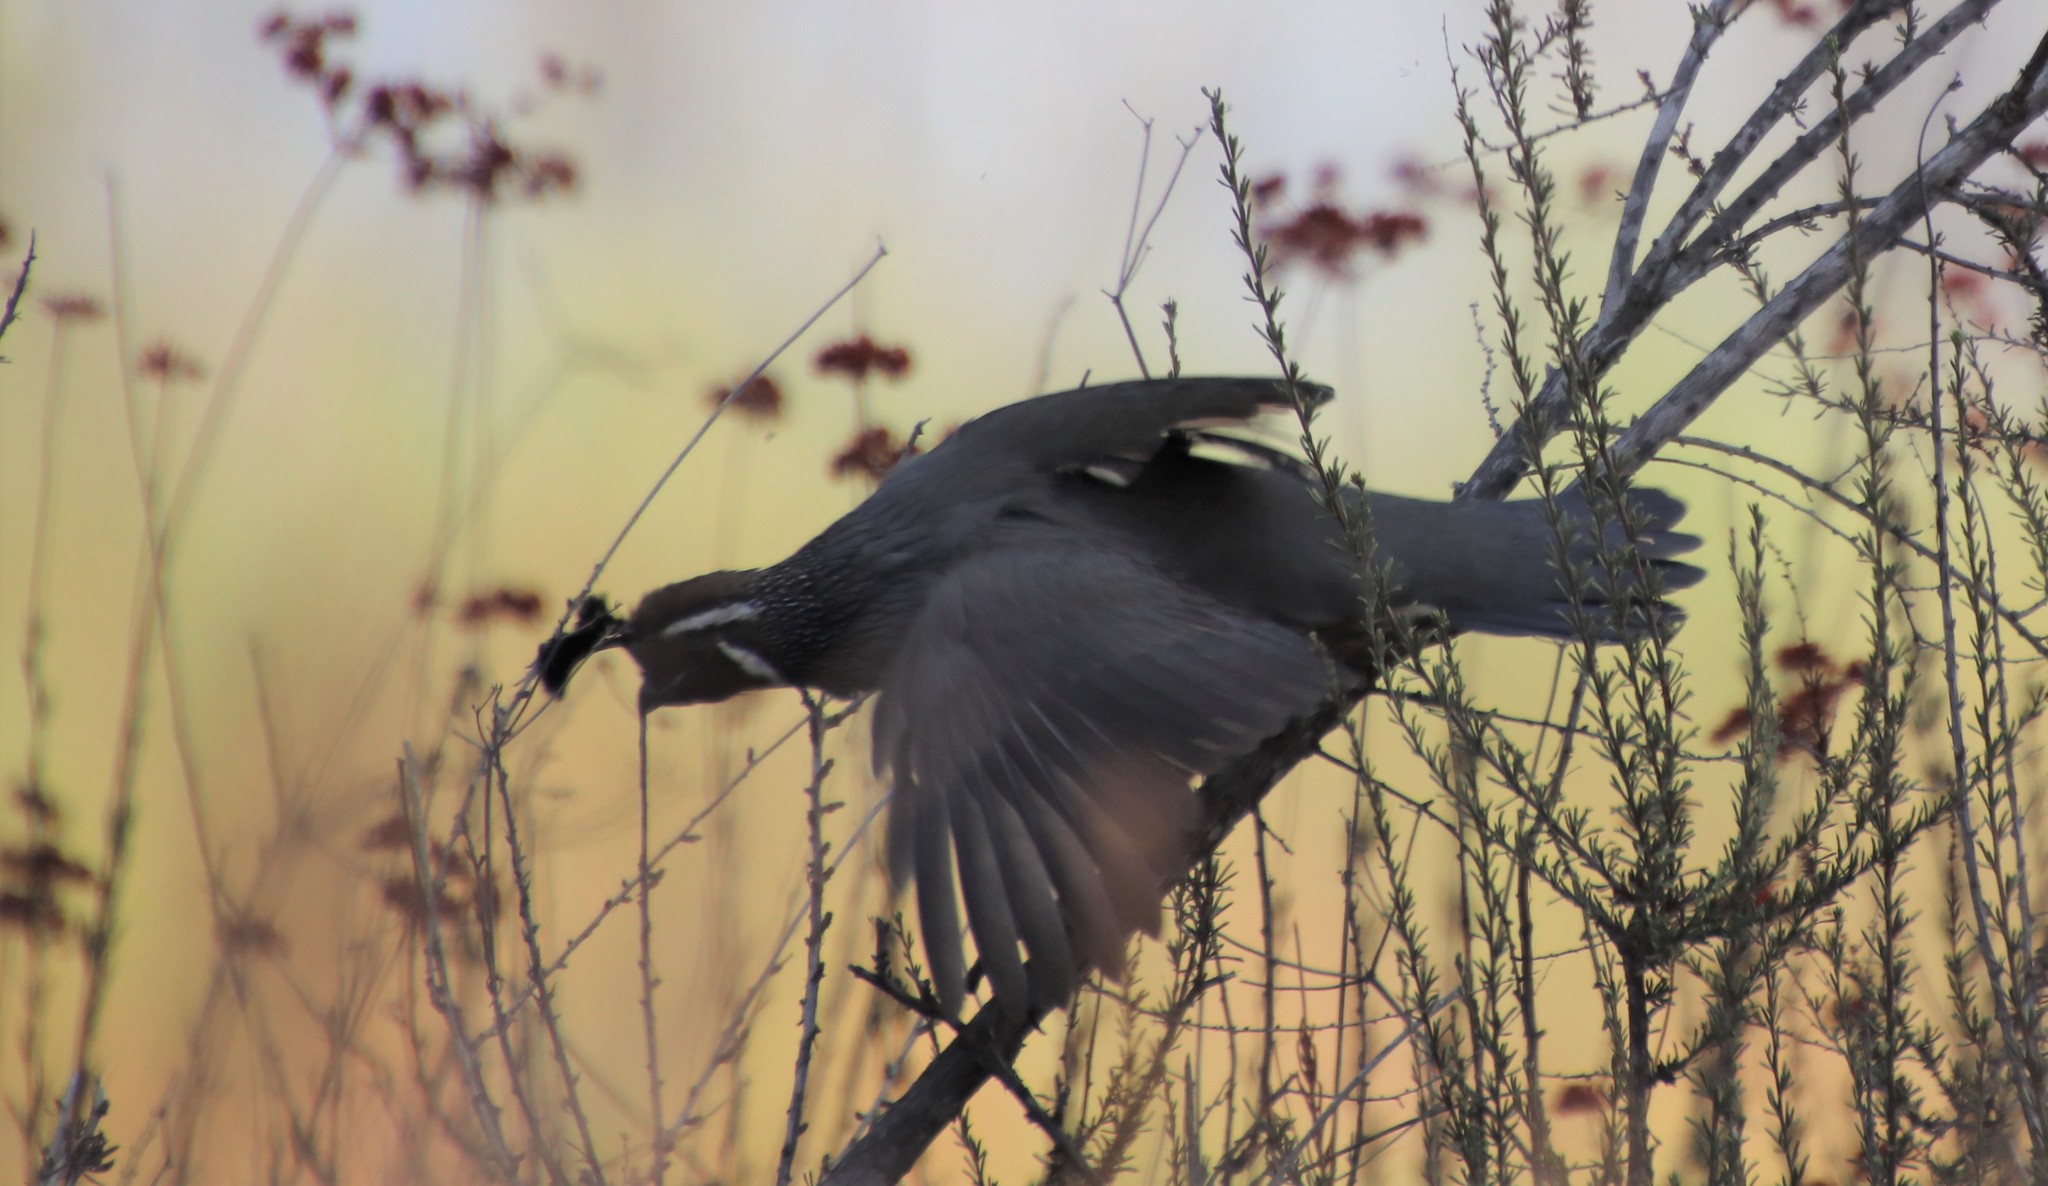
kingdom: Animalia
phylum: Chordata
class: Aves
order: Galliformes
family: Odontophoridae
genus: Callipepla
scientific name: Callipepla californica
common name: California quail
